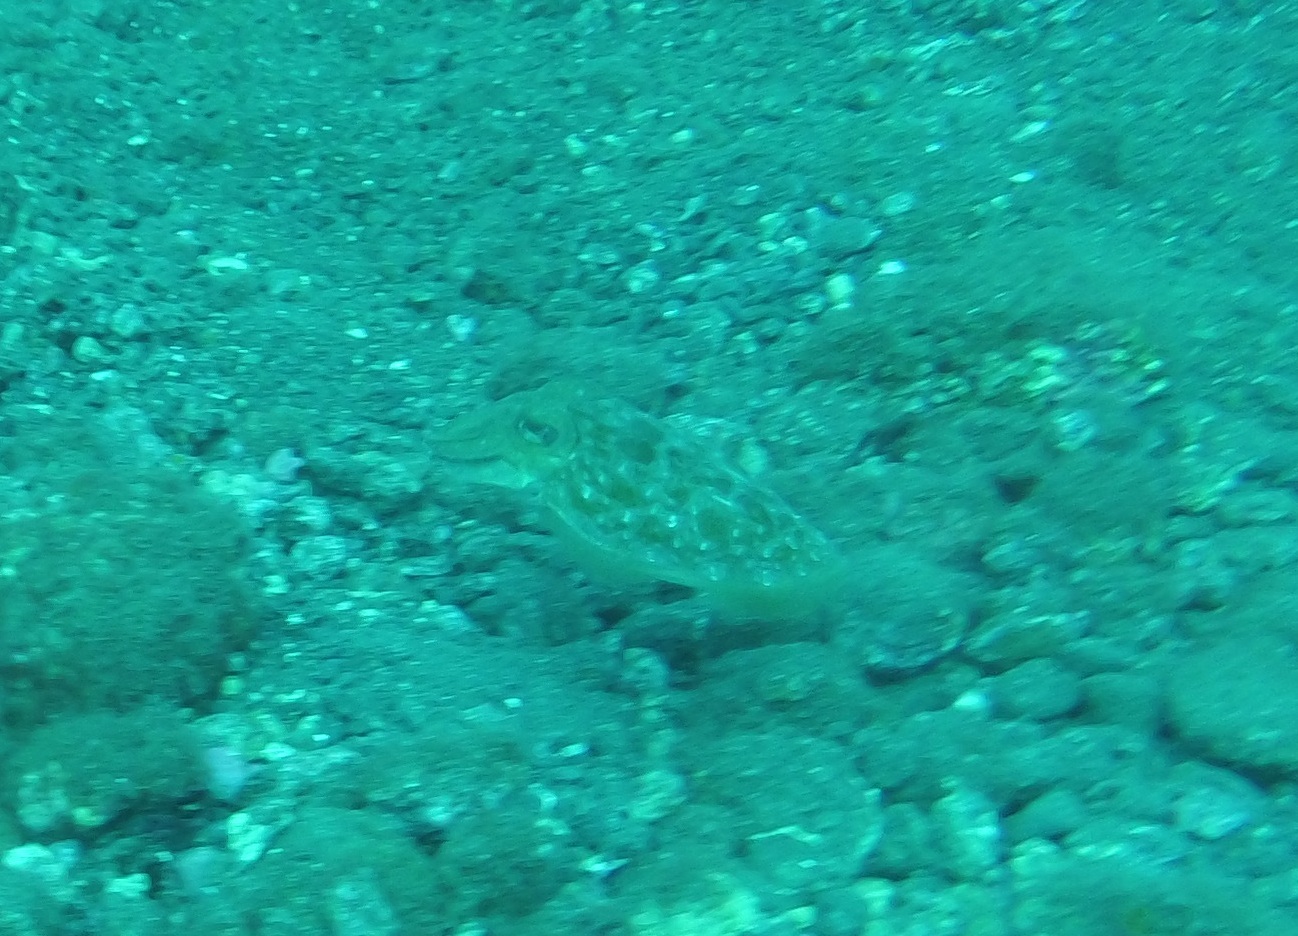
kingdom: Animalia
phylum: Mollusca
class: Cephalopoda
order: Sepiida
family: Sepiidae
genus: Sepia
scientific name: Sepia officinalis
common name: Common cuttlefish
